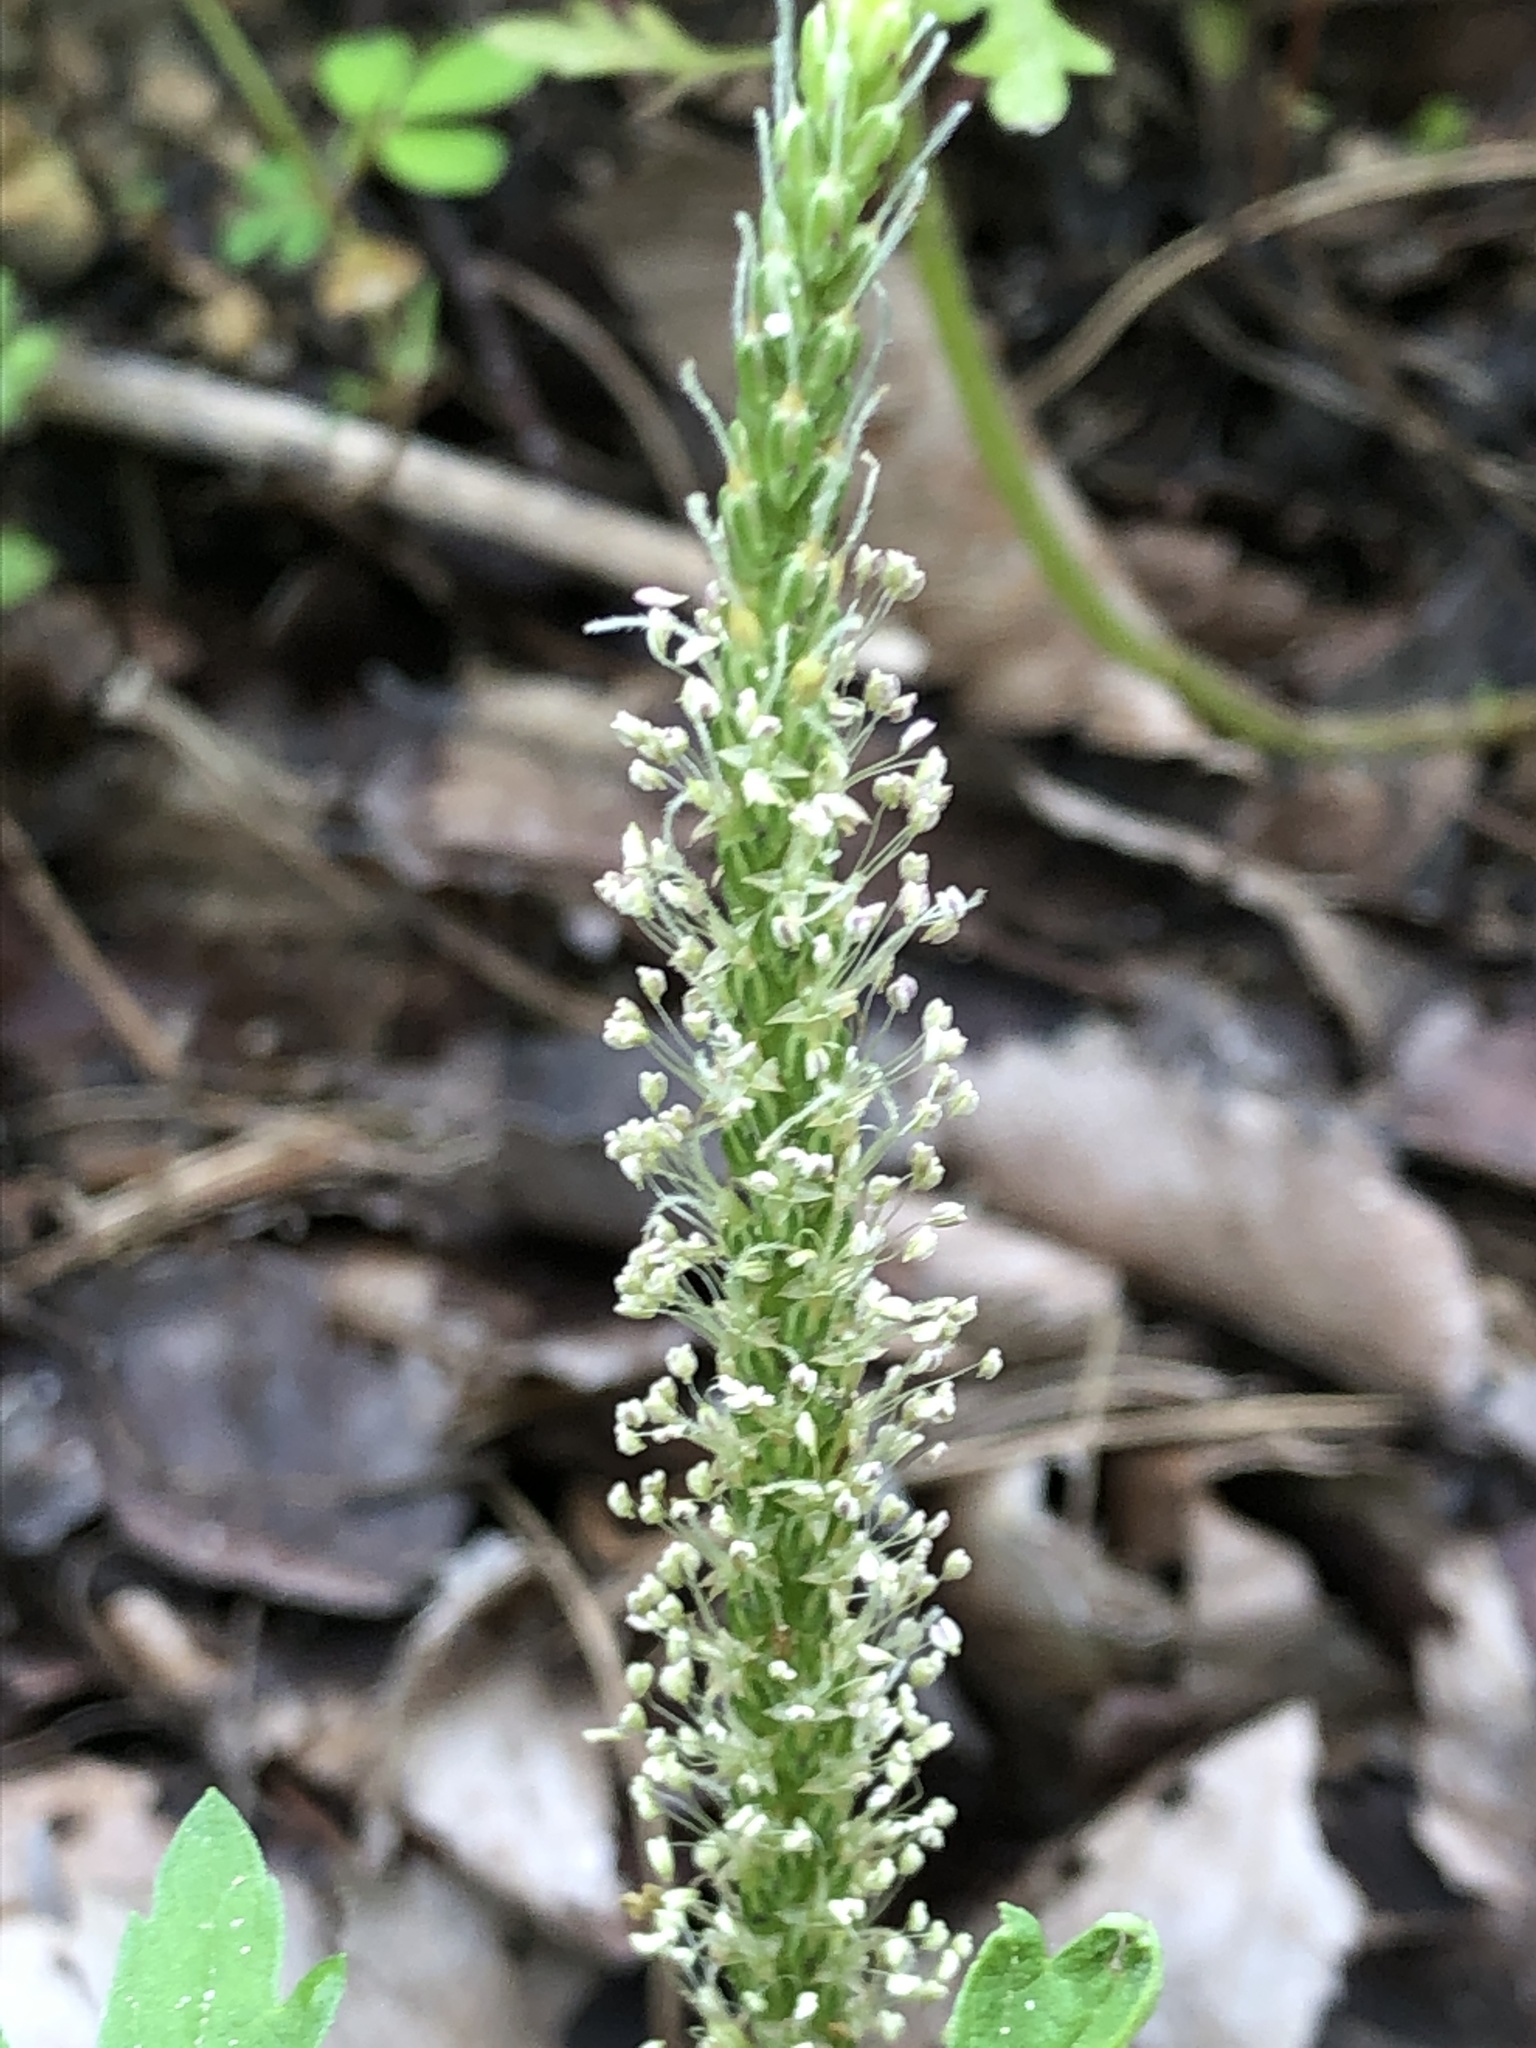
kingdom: Plantae
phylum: Tracheophyta
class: Magnoliopsida
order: Lamiales
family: Plantaginaceae
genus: Plantago
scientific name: Plantago asiatica
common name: Psyllium
